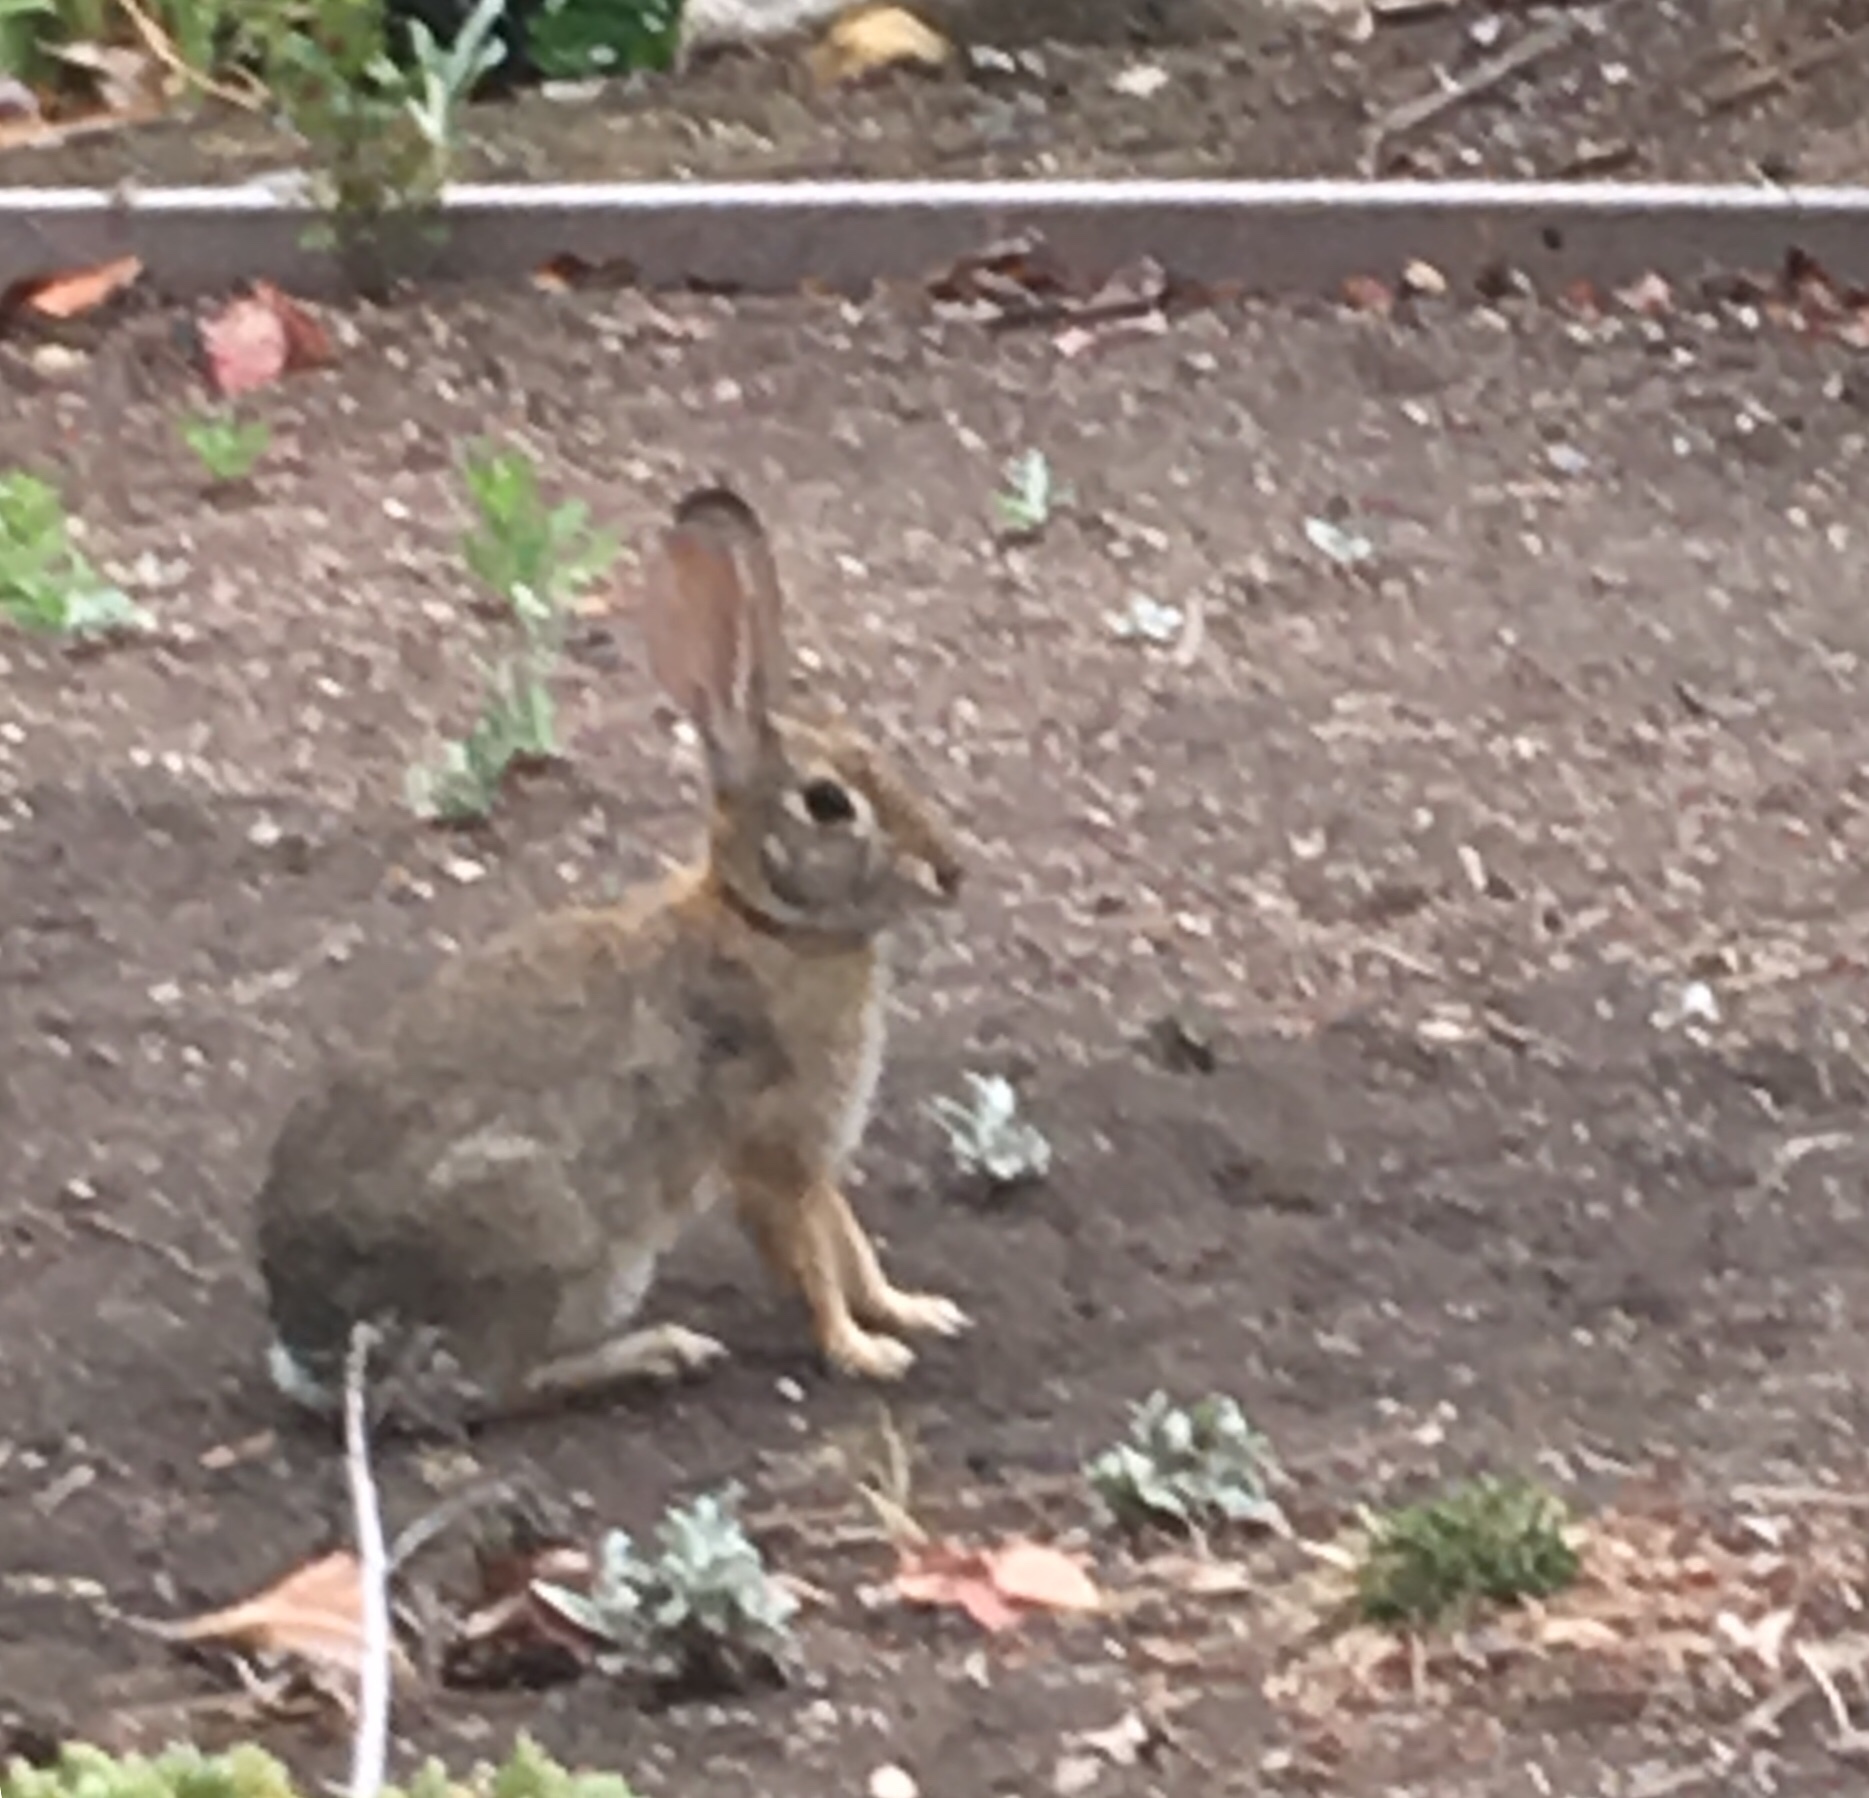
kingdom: Animalia
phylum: Chordata
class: Mammalia
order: Lagomorpha
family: Leporidae
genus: Sylvilagus
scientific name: Sylvilagus audubonii
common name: Desert cottontail
